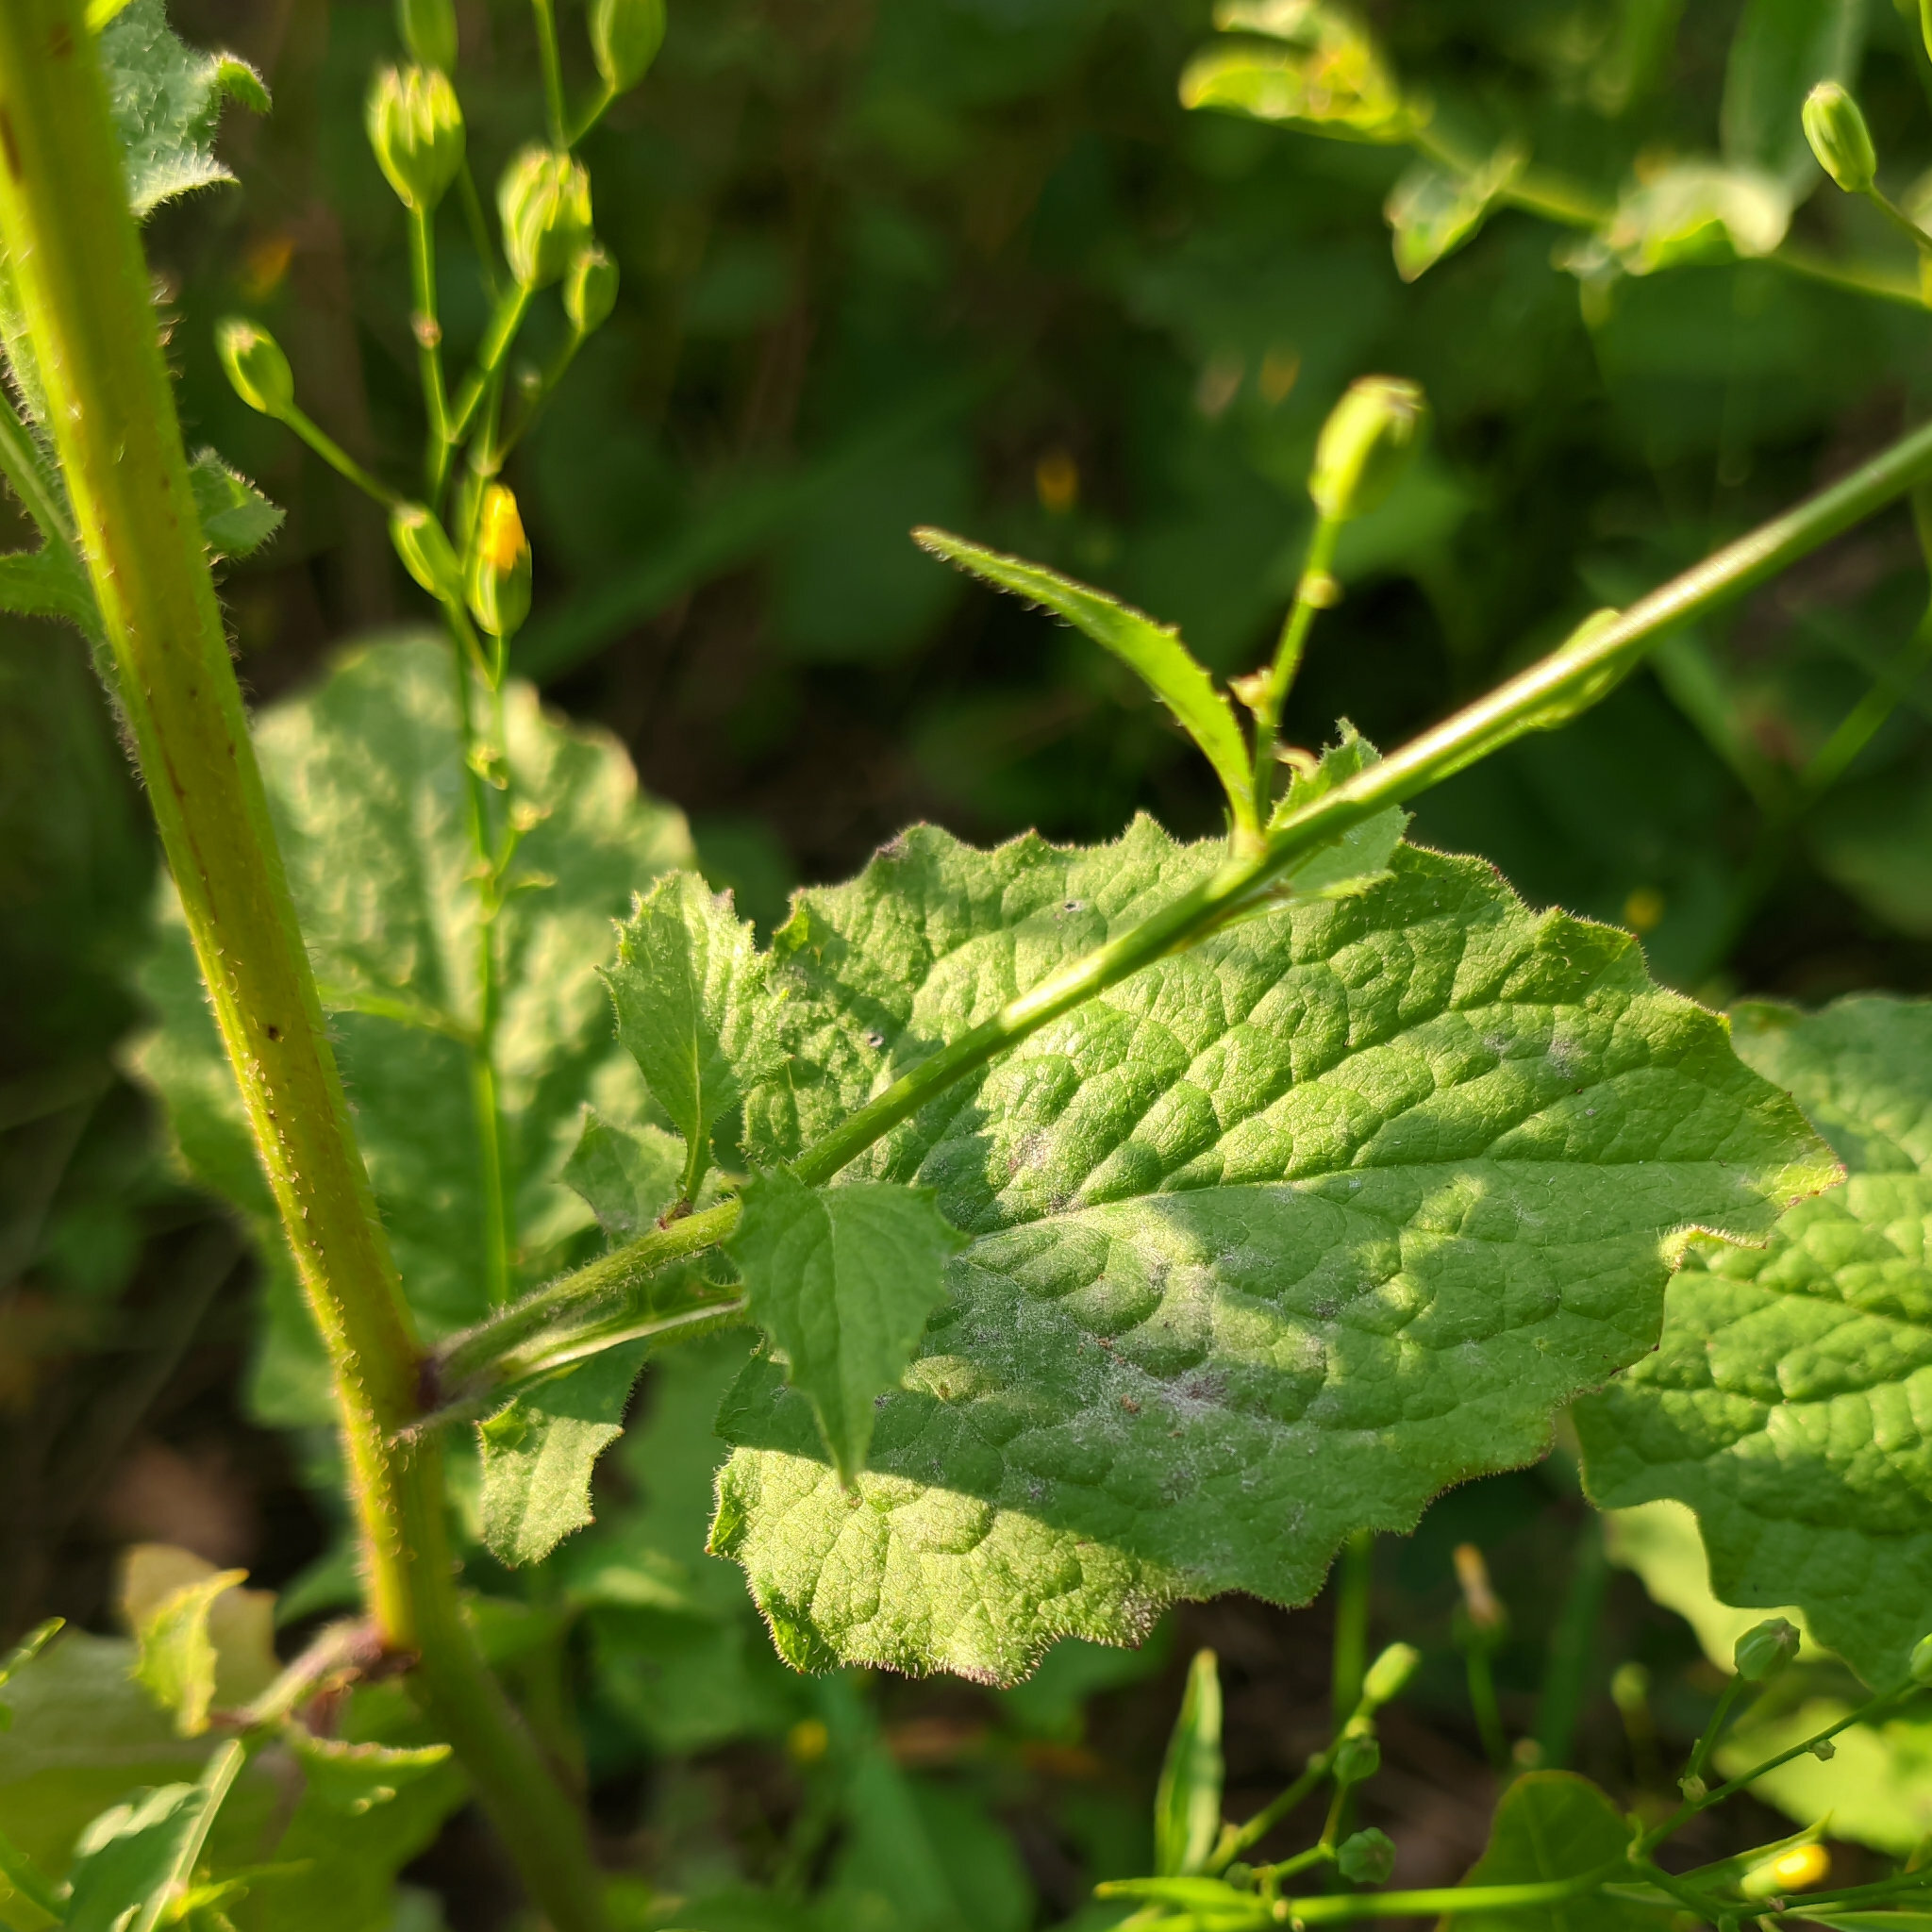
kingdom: Plantae
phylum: Tracheophyta
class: Magnoliopsida
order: Asterales
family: Asteraceae
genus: Lapsana
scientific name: Lapsana communis
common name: Nipplewort
